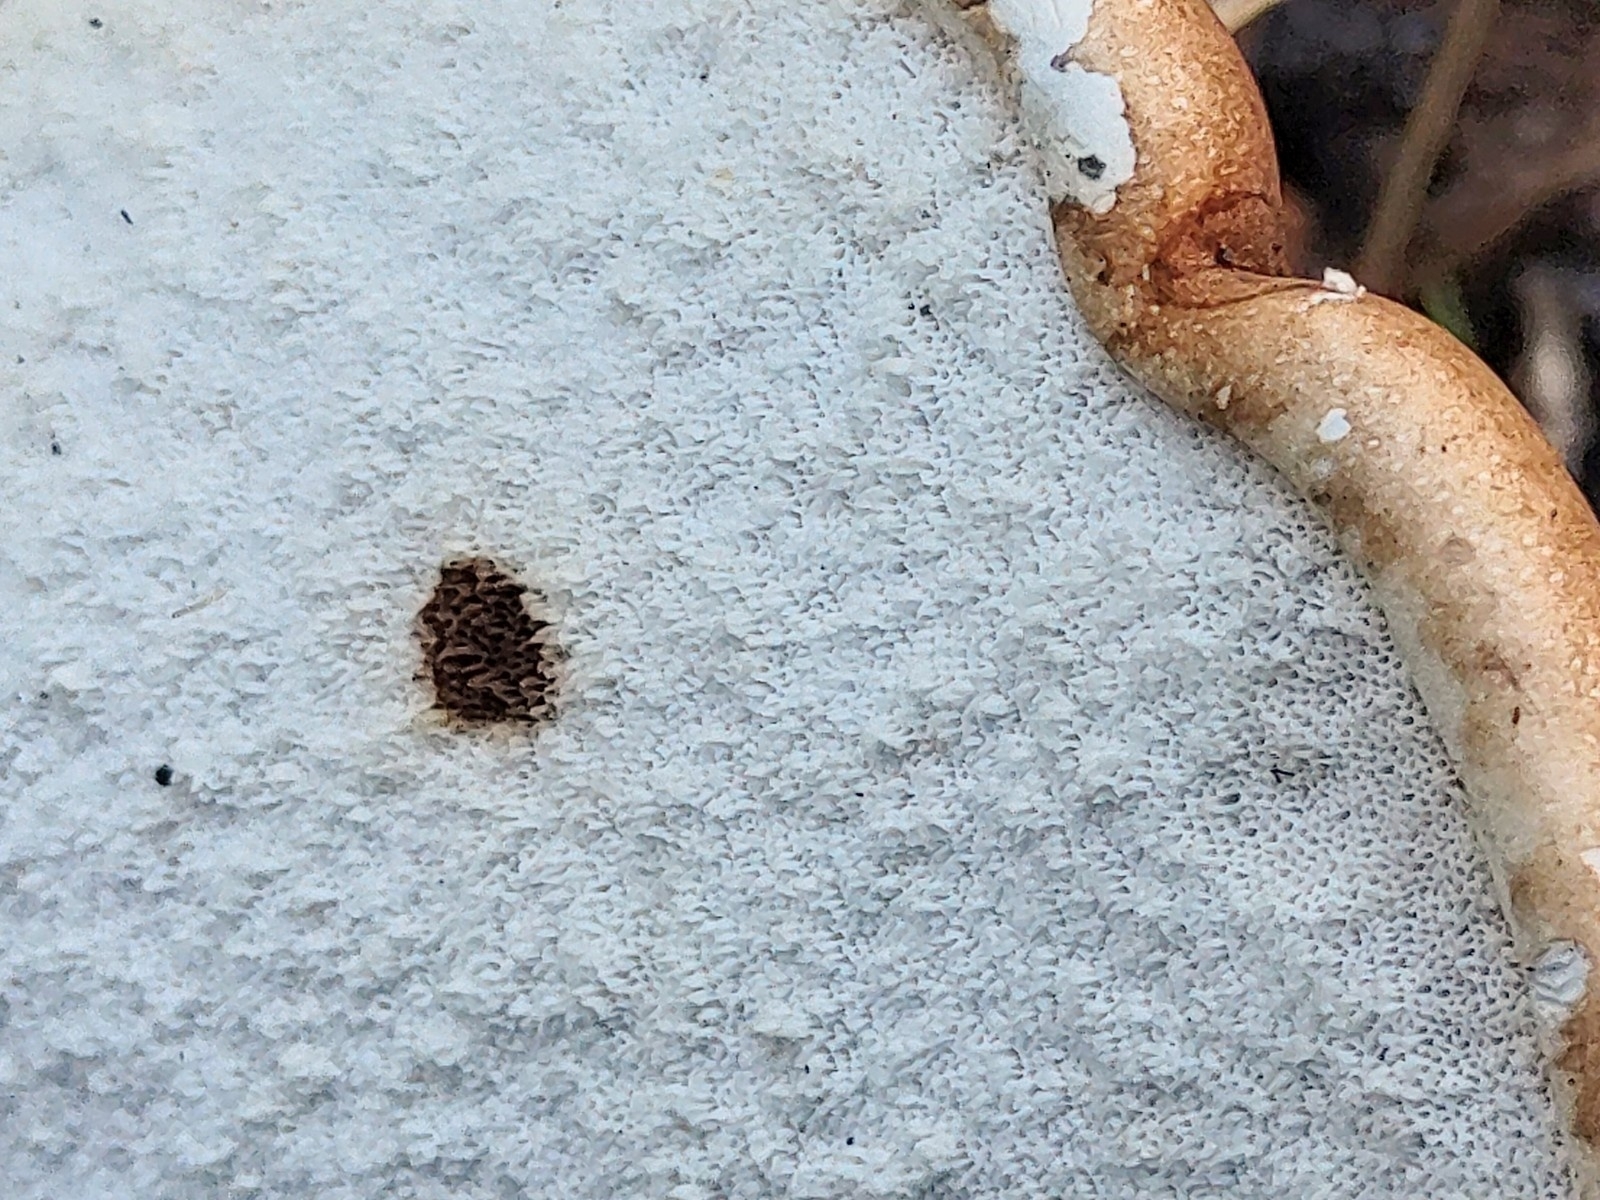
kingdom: Fungi
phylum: Basidiomycota
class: Agaricomycetes
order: Polyporales
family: Fomitopsidaceae
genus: Fomitopsis
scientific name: Fomitopsis betulina
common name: Birch polypore
